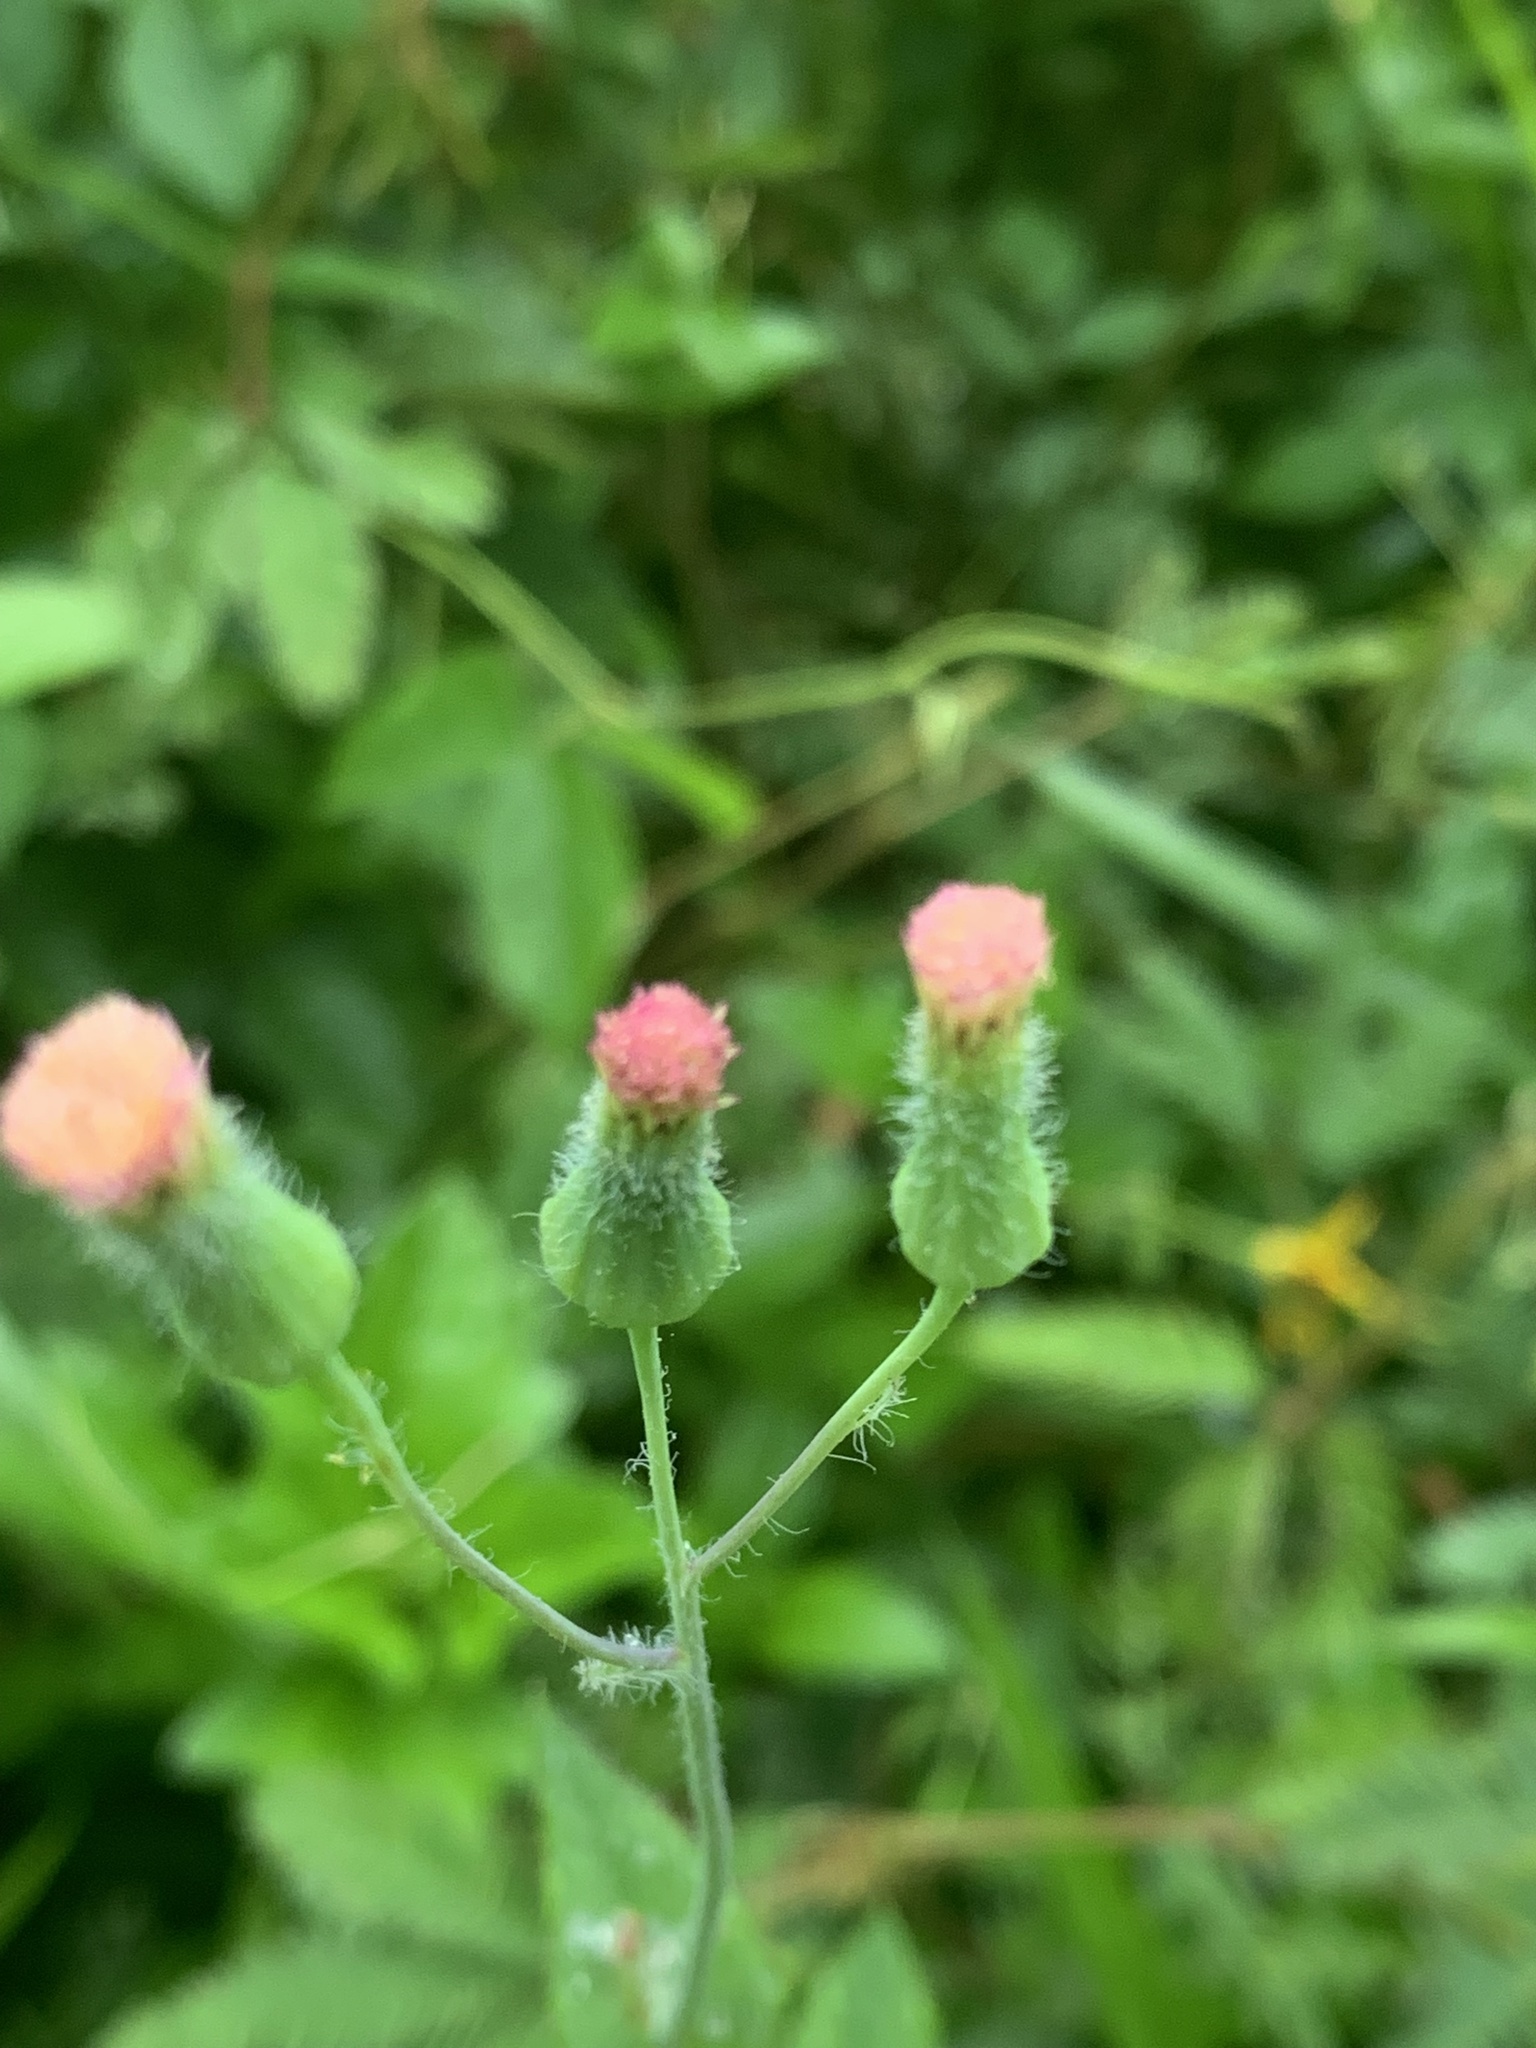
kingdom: Plantae
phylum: Tracheophyta
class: Magnoliopsida
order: Asterales
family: Asteraceae
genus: Emilia
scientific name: Emilia praetermissa
